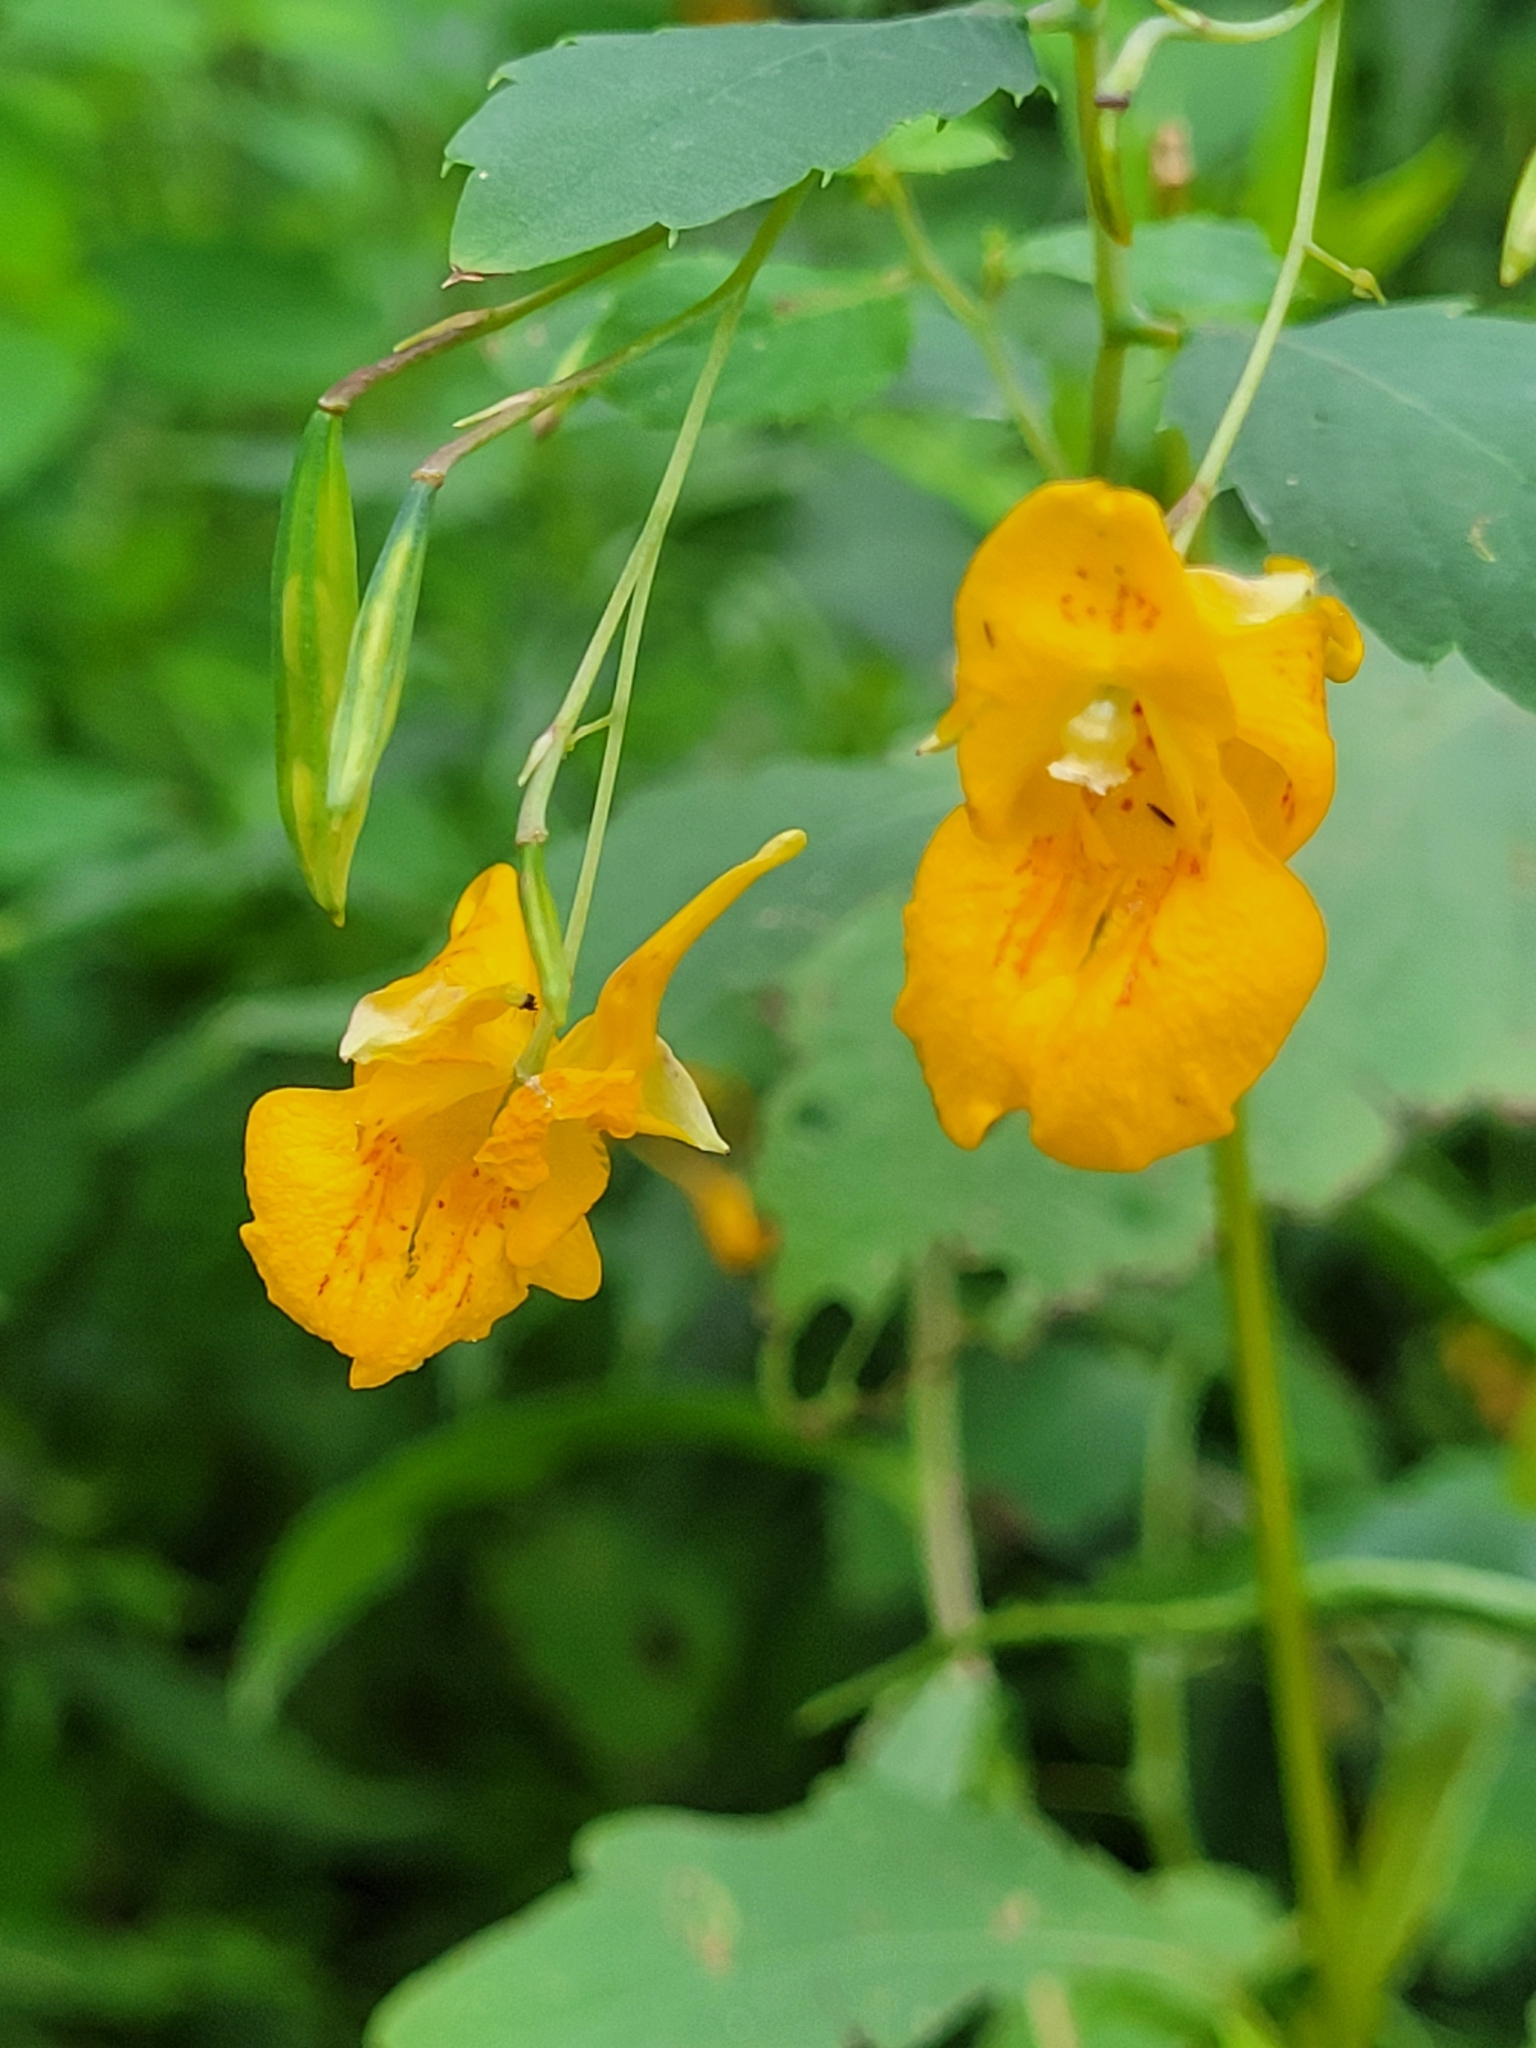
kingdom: Plantae
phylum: Tracheophyta
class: Magnoliopsida
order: Ericales
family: Balsaminaceae
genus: Impatiens
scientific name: Impatiens capensis
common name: Orange balsam
